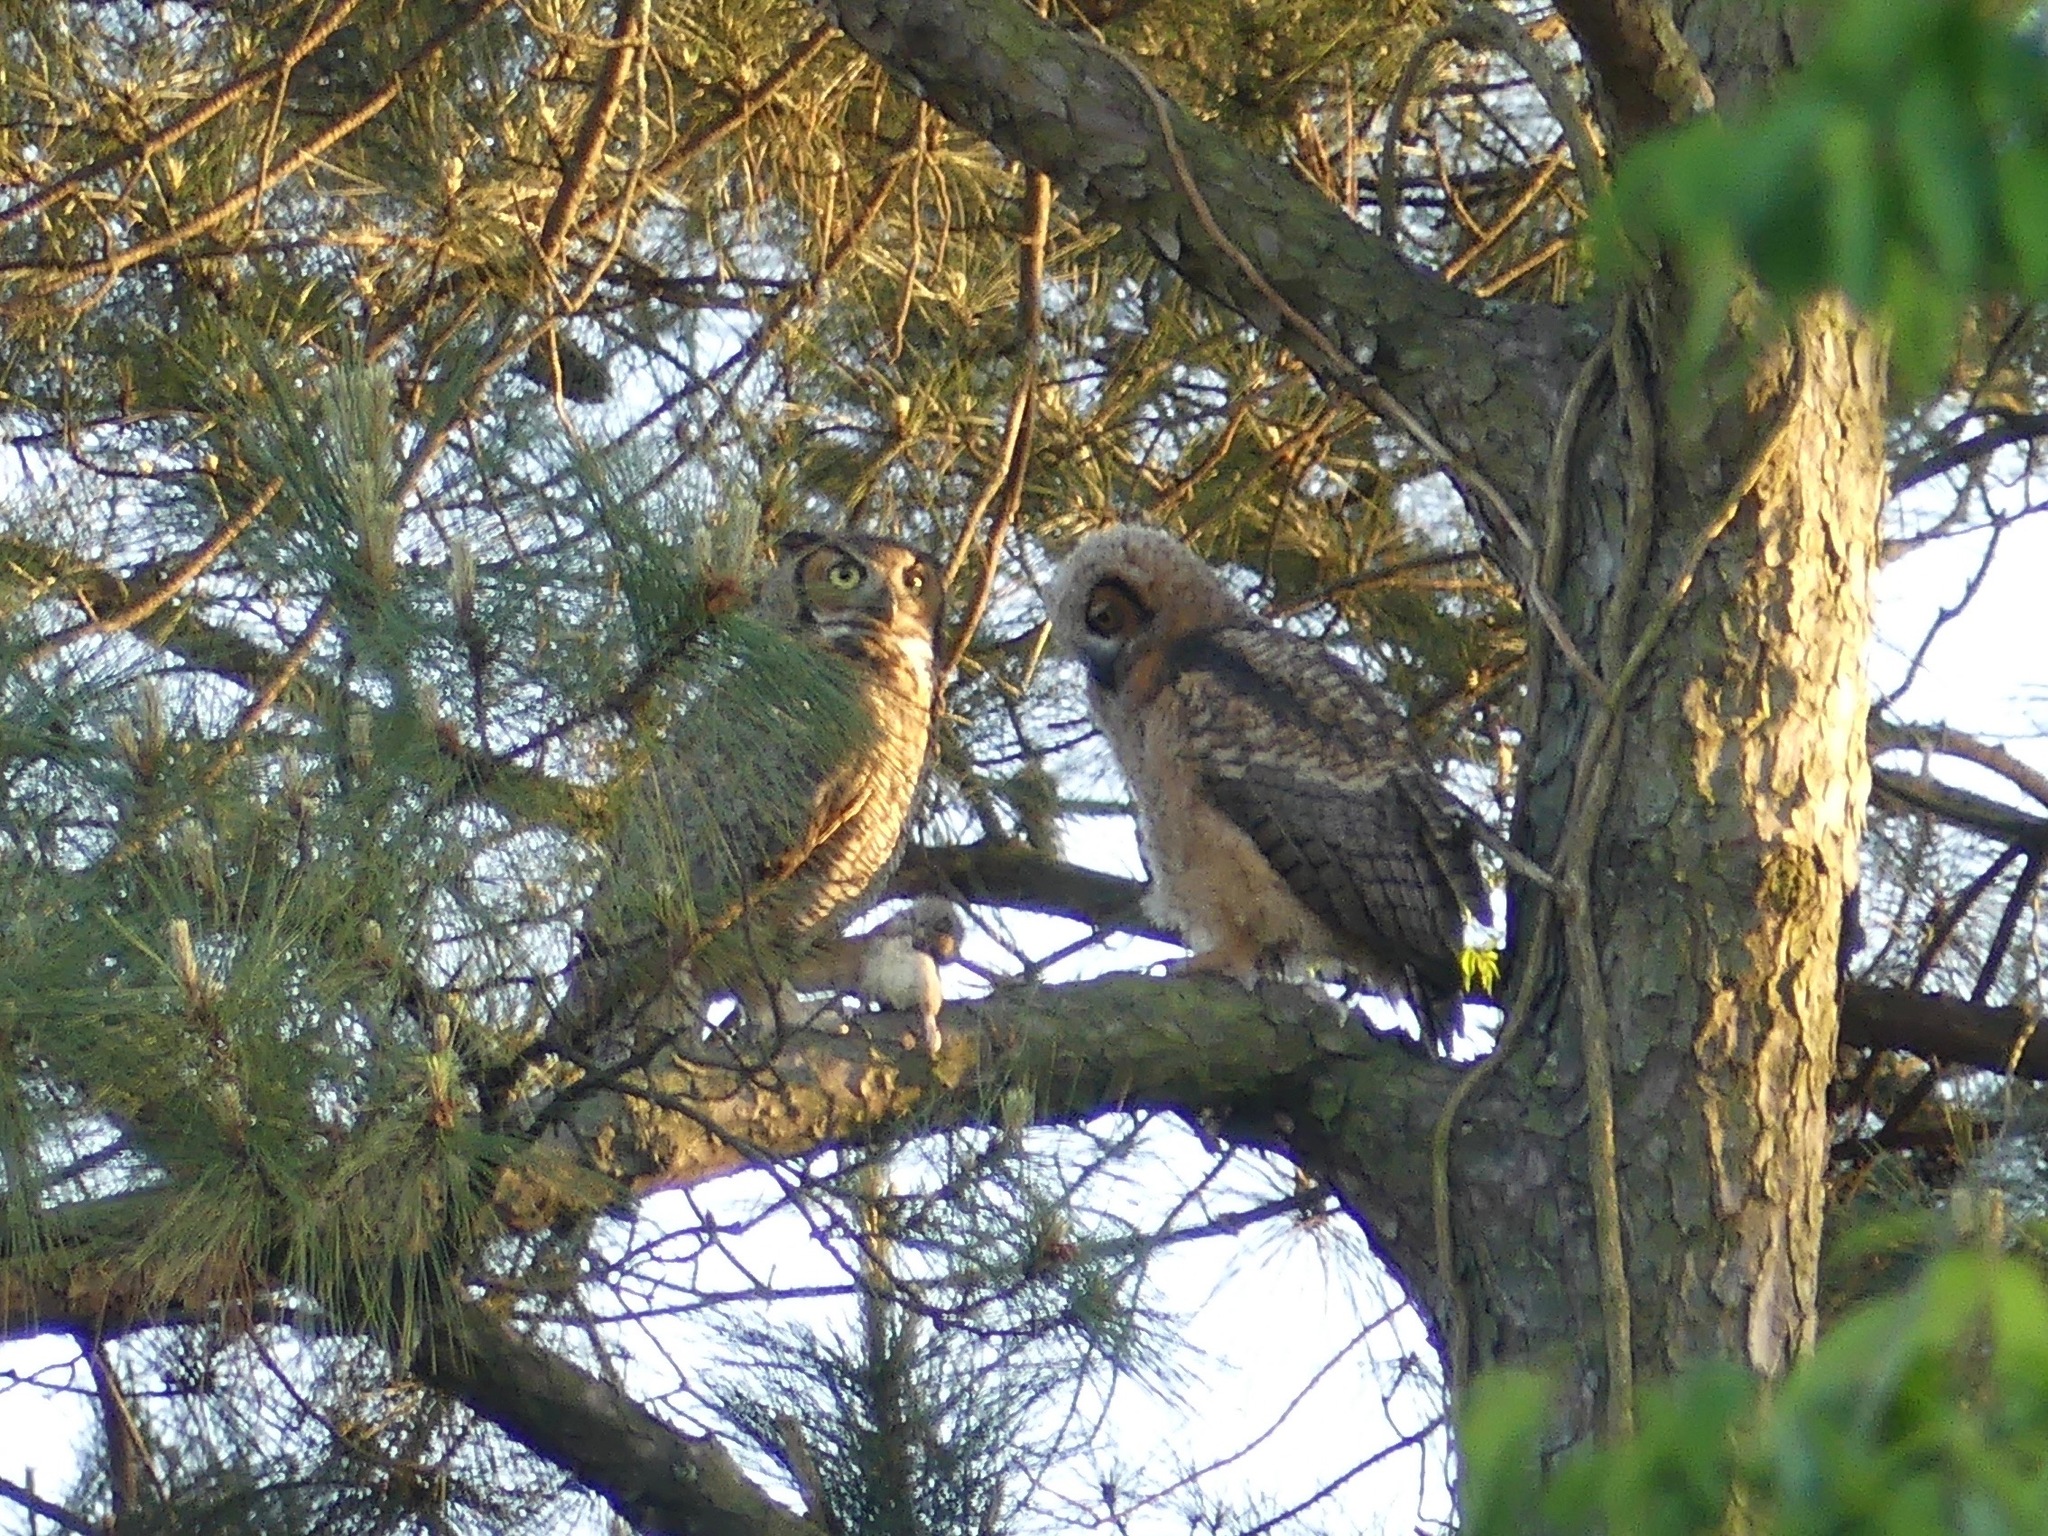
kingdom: Animalia
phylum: Chordata
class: Aves
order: Strigiformes
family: Strigidae
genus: Bubo
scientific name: Bubo virginianus
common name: Great horned owl
